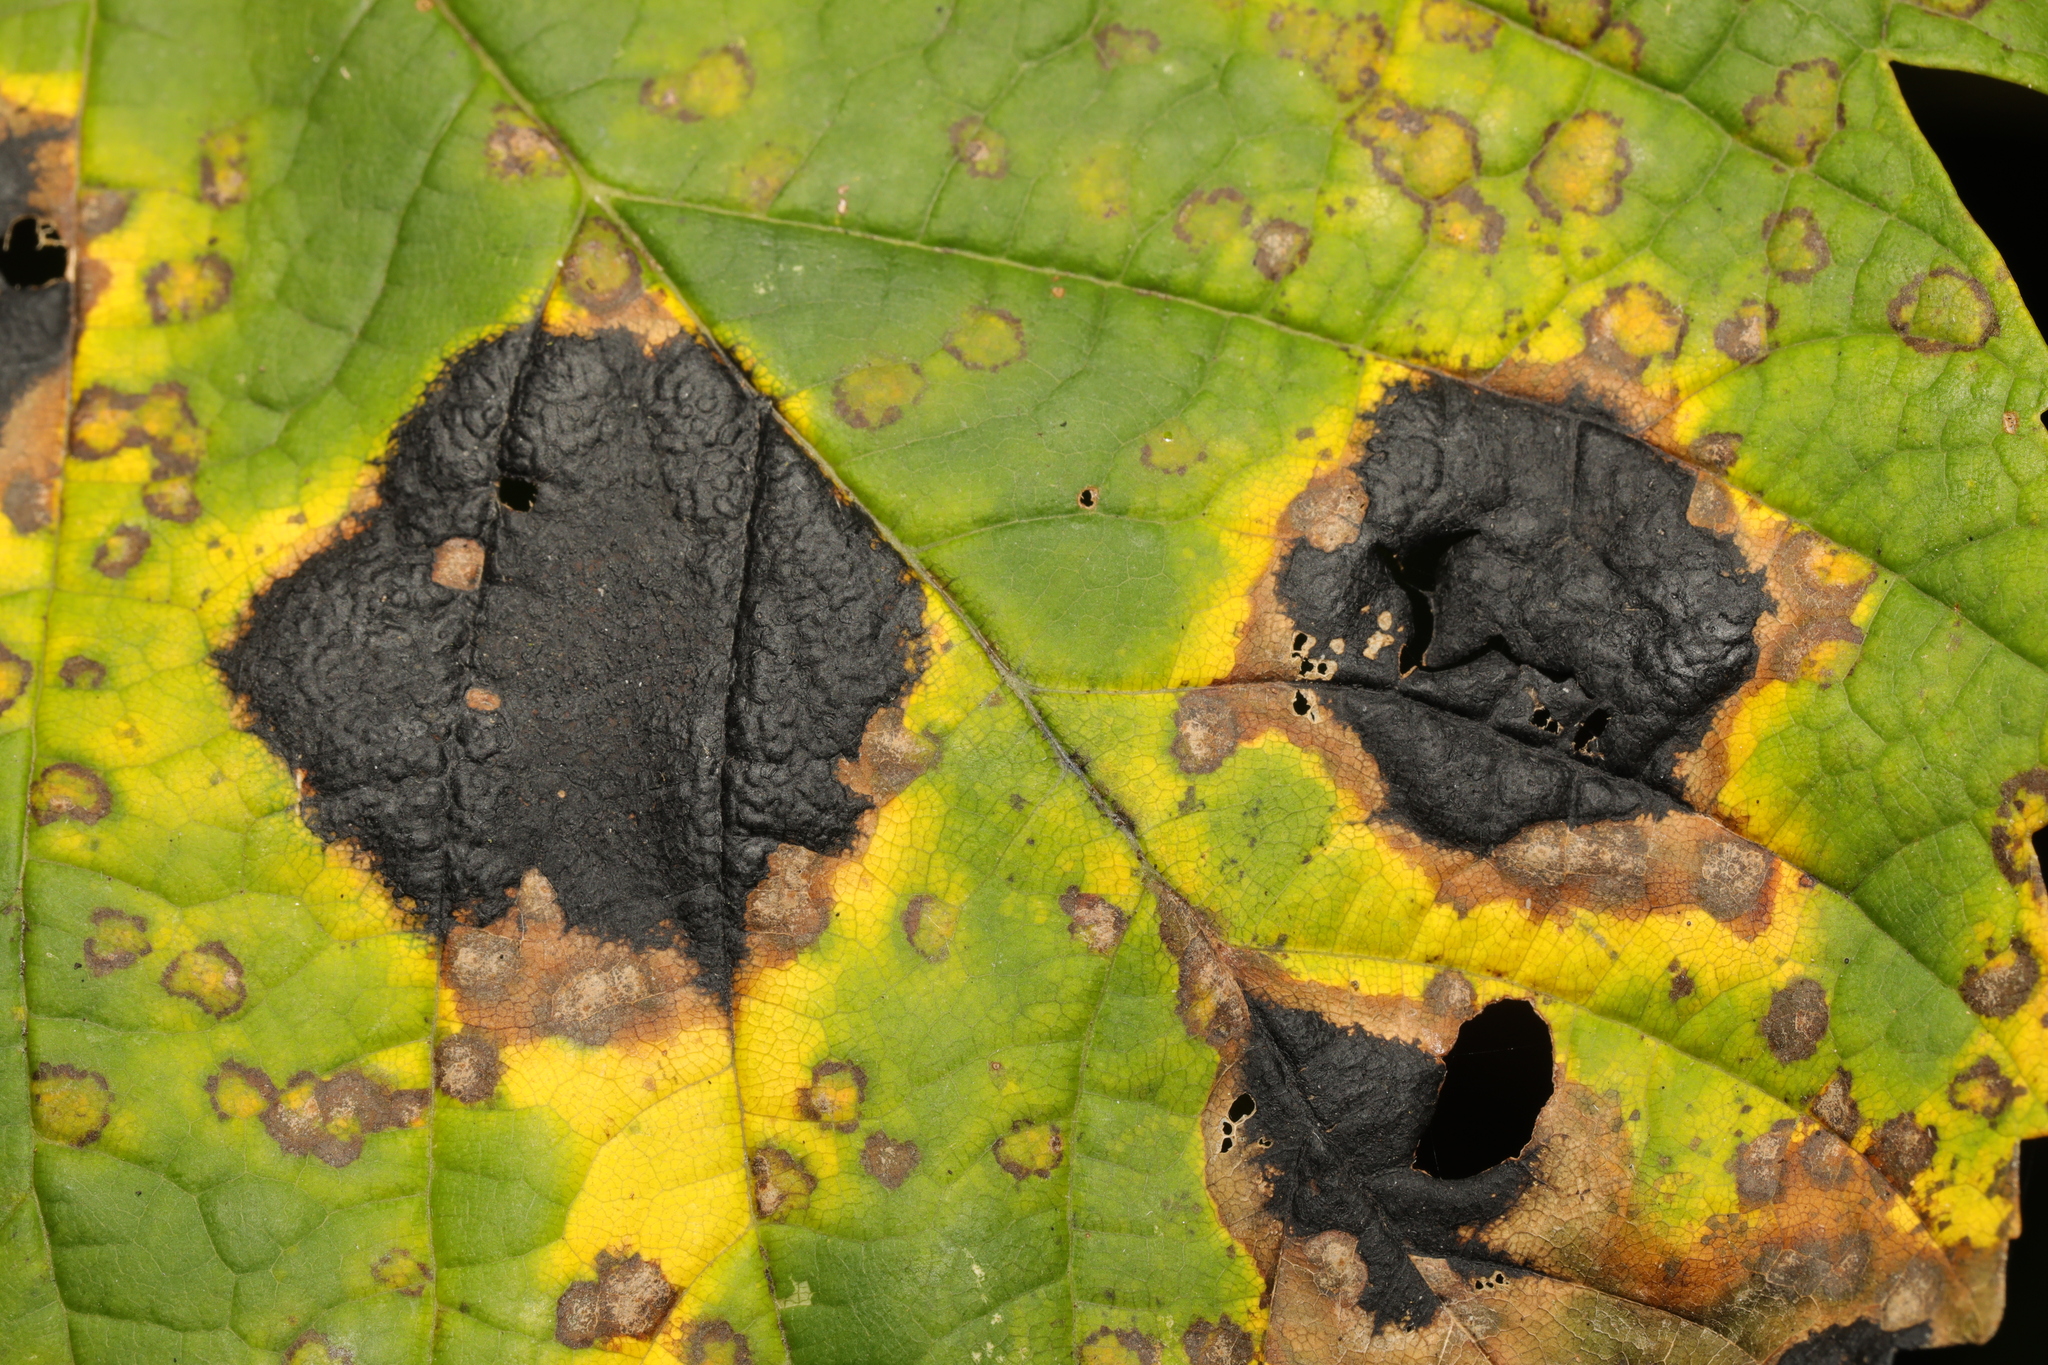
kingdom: Fungi
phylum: Ascomycota
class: Leotiomycetes
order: Rhytismatales
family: Rhytismataceae
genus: Rhytisma
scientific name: Rhytisma acerinum
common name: European tar spot
